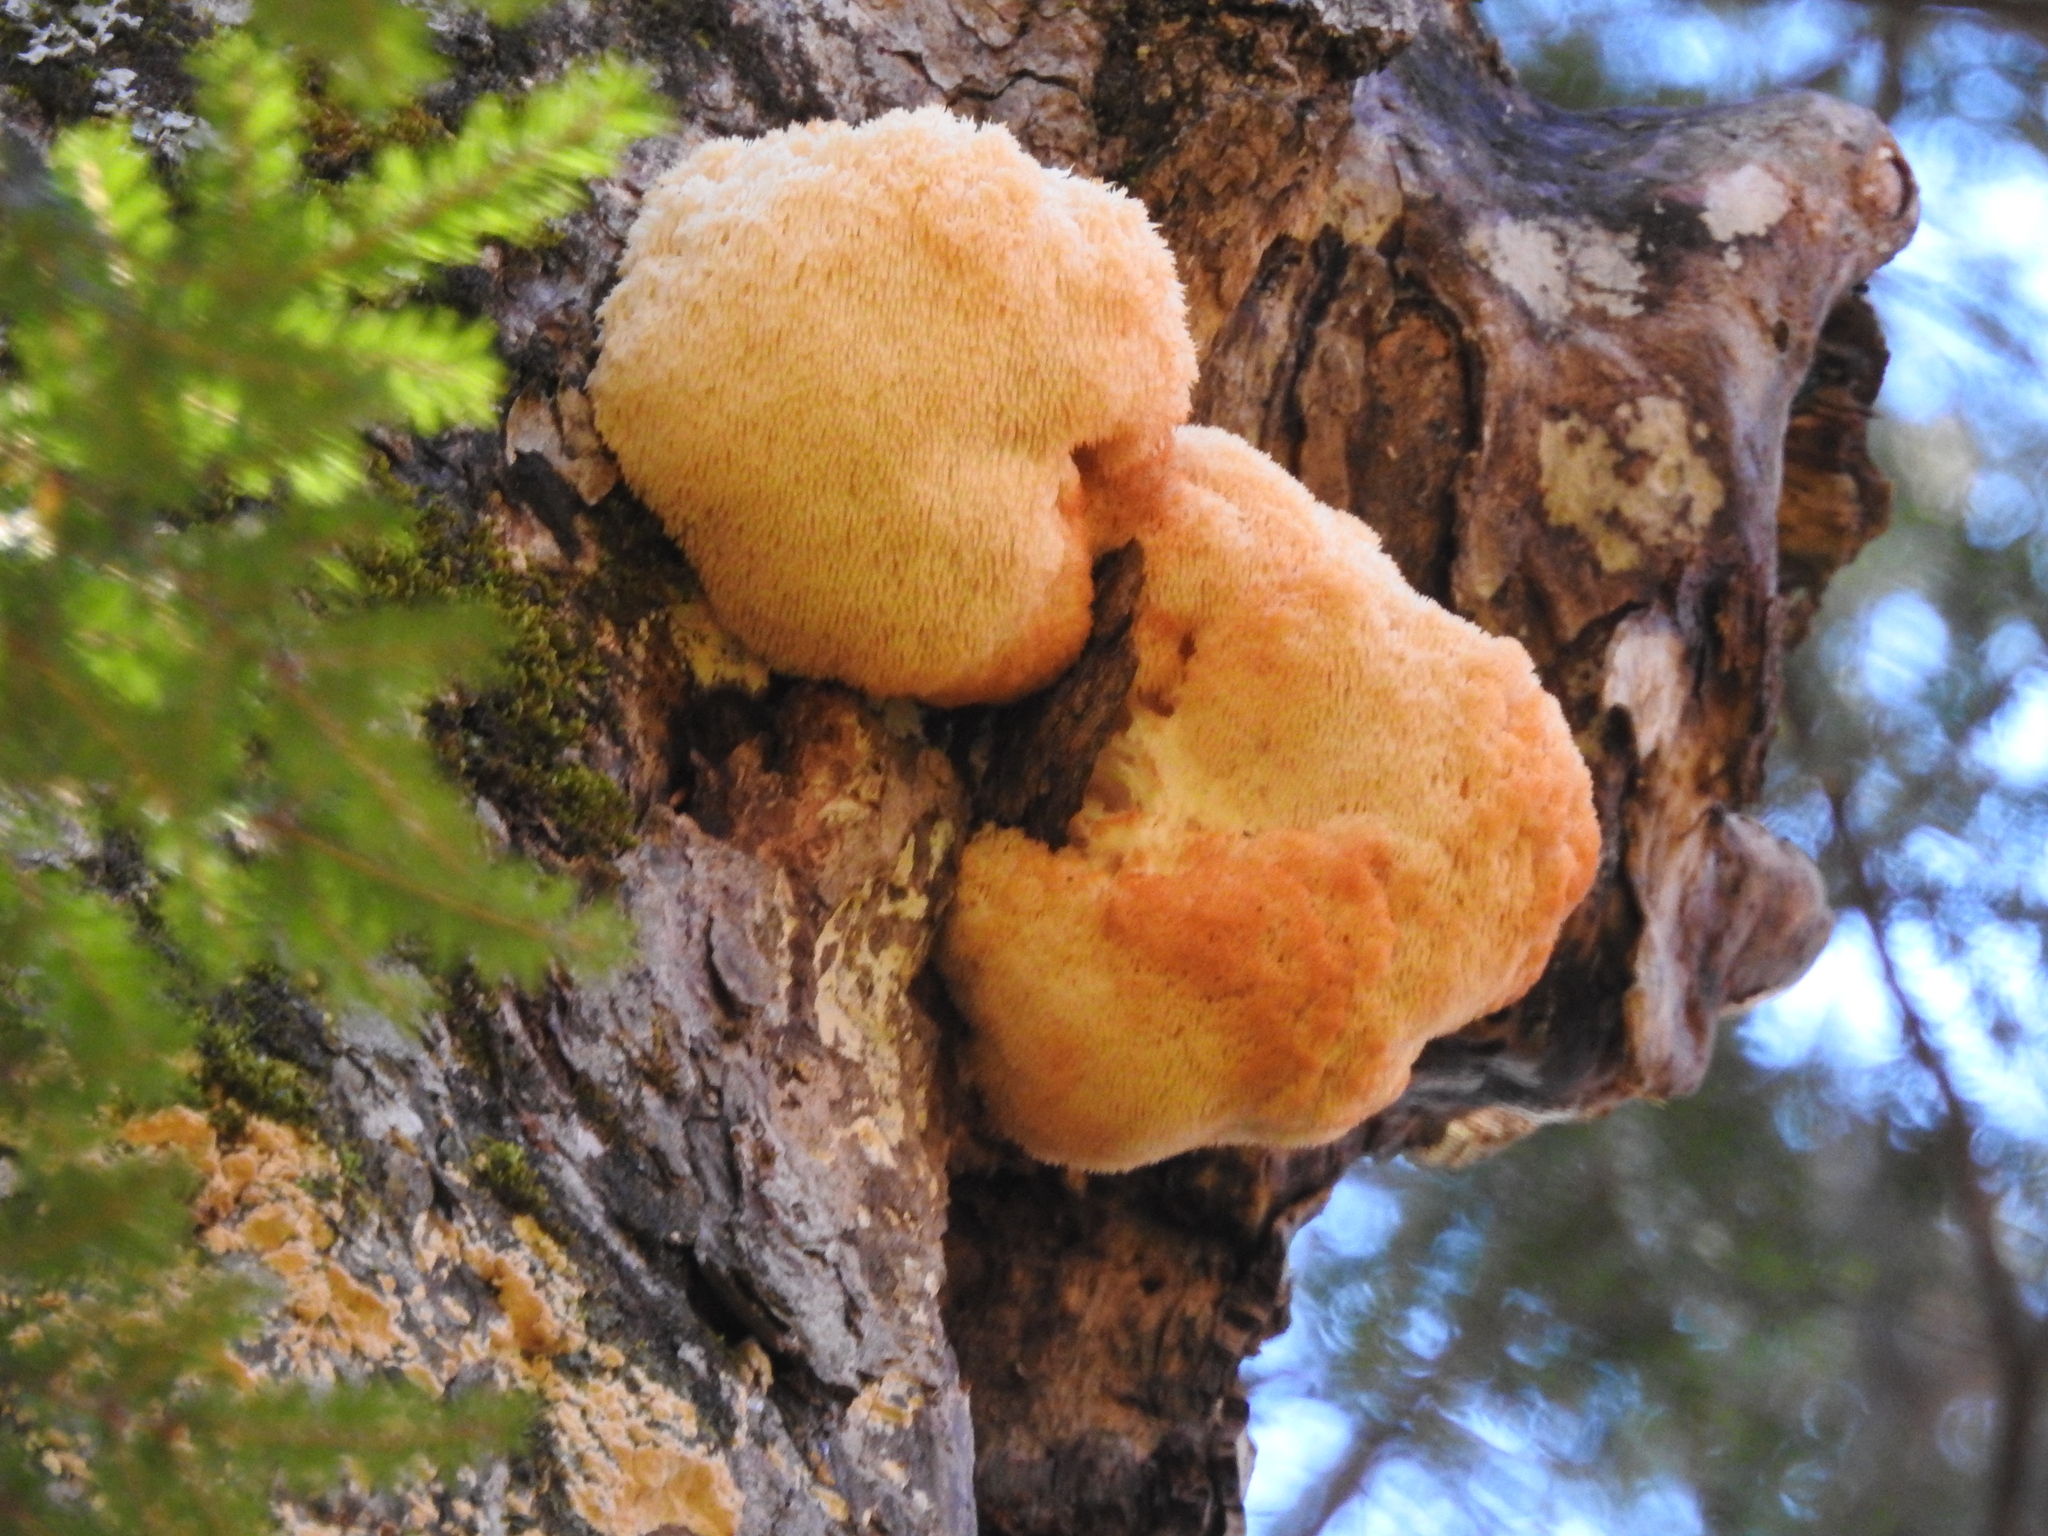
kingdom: Fungi
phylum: Basidiomycota
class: Agaricomycetes
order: Russulales
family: Hericiaceae
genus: Hericium
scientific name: Hericium erinaceus
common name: Bearded tooth
